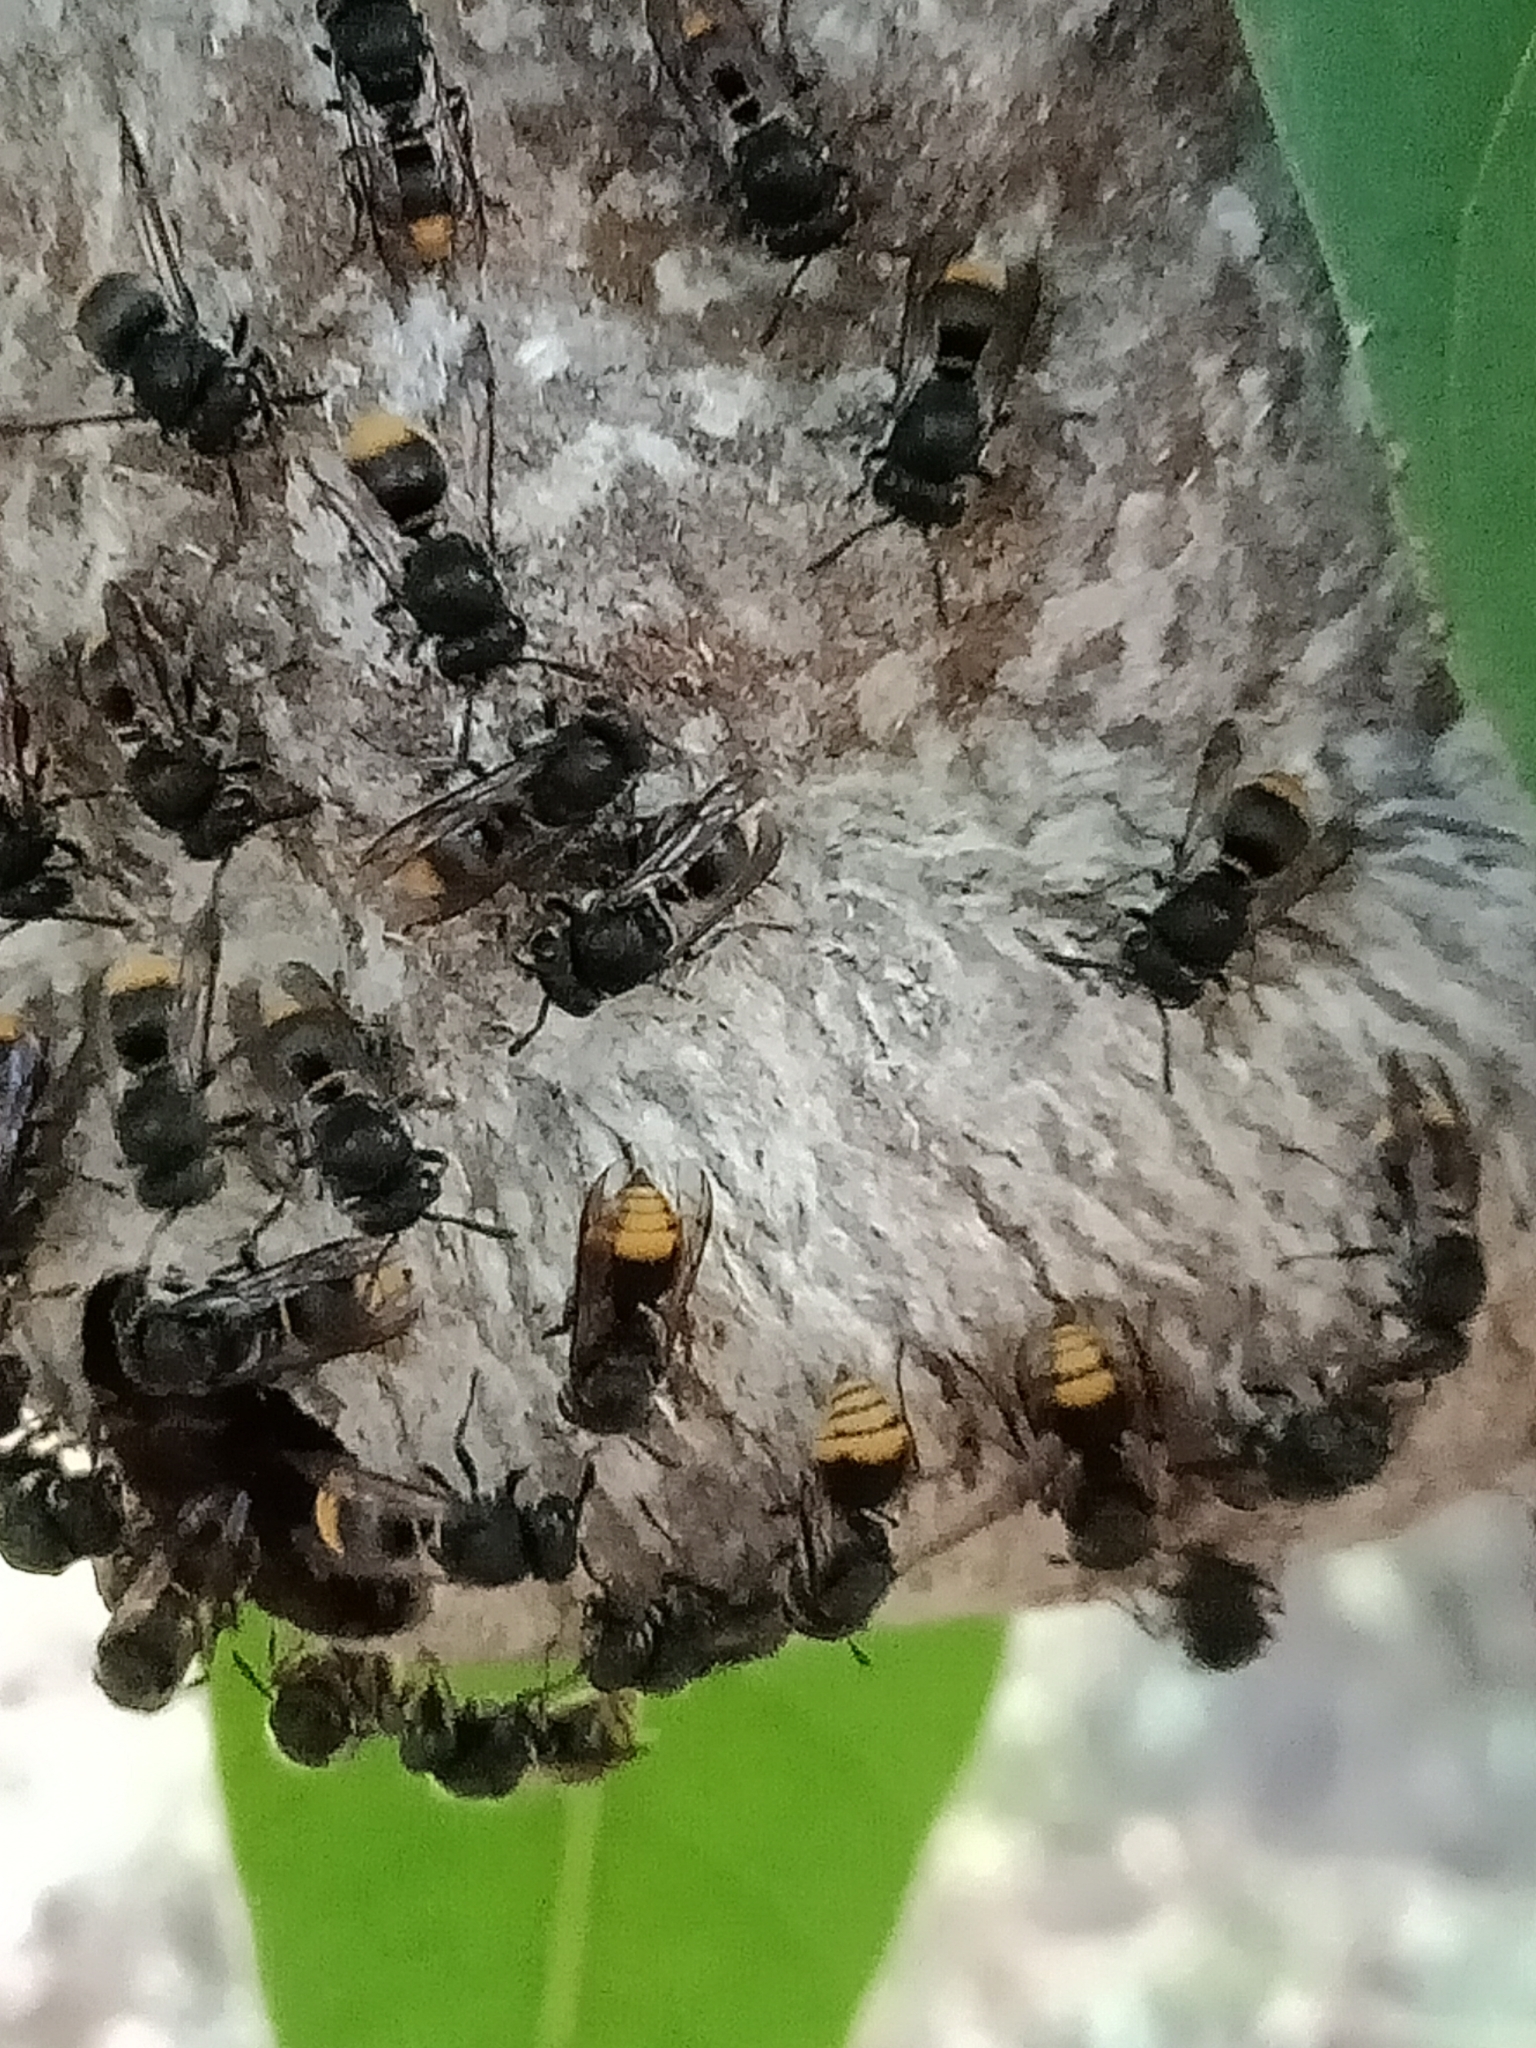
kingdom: Animalia
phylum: Arthropoda
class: Insecta
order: Hymenoptera
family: Vespidae
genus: Brachygastra
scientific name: Brachygastra azteca
